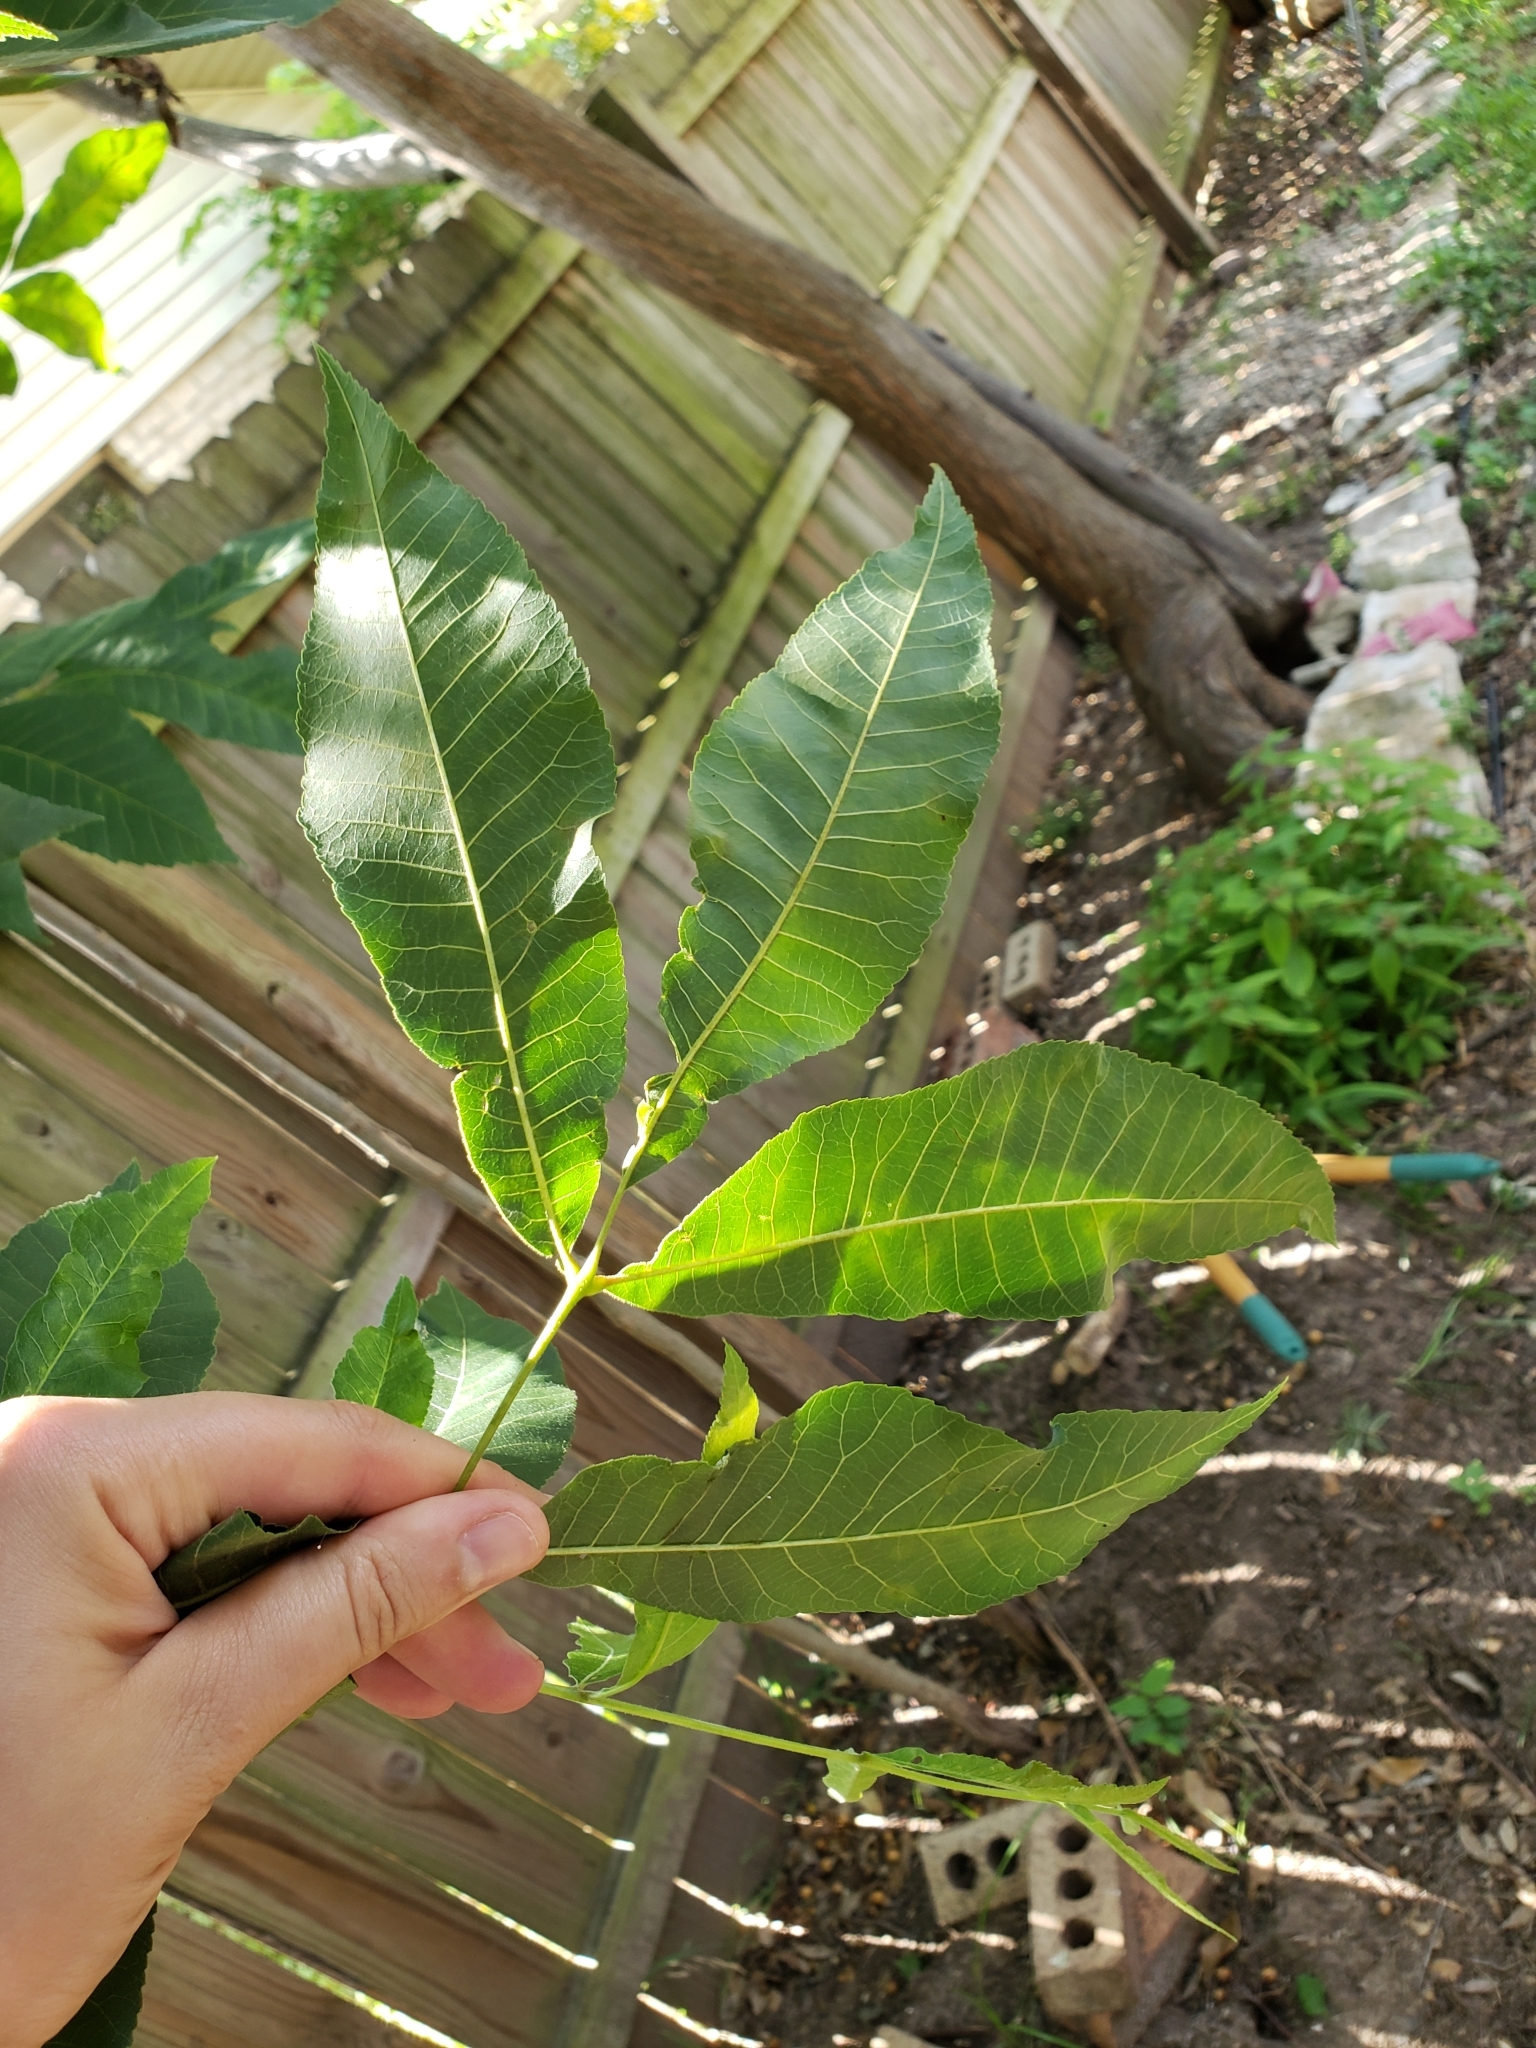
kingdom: Plantae
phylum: Tracheophyta
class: Magnoliopsida
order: Fagales
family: Juglandaceae
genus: Carya
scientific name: Carya illinoinensis
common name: Pecan
